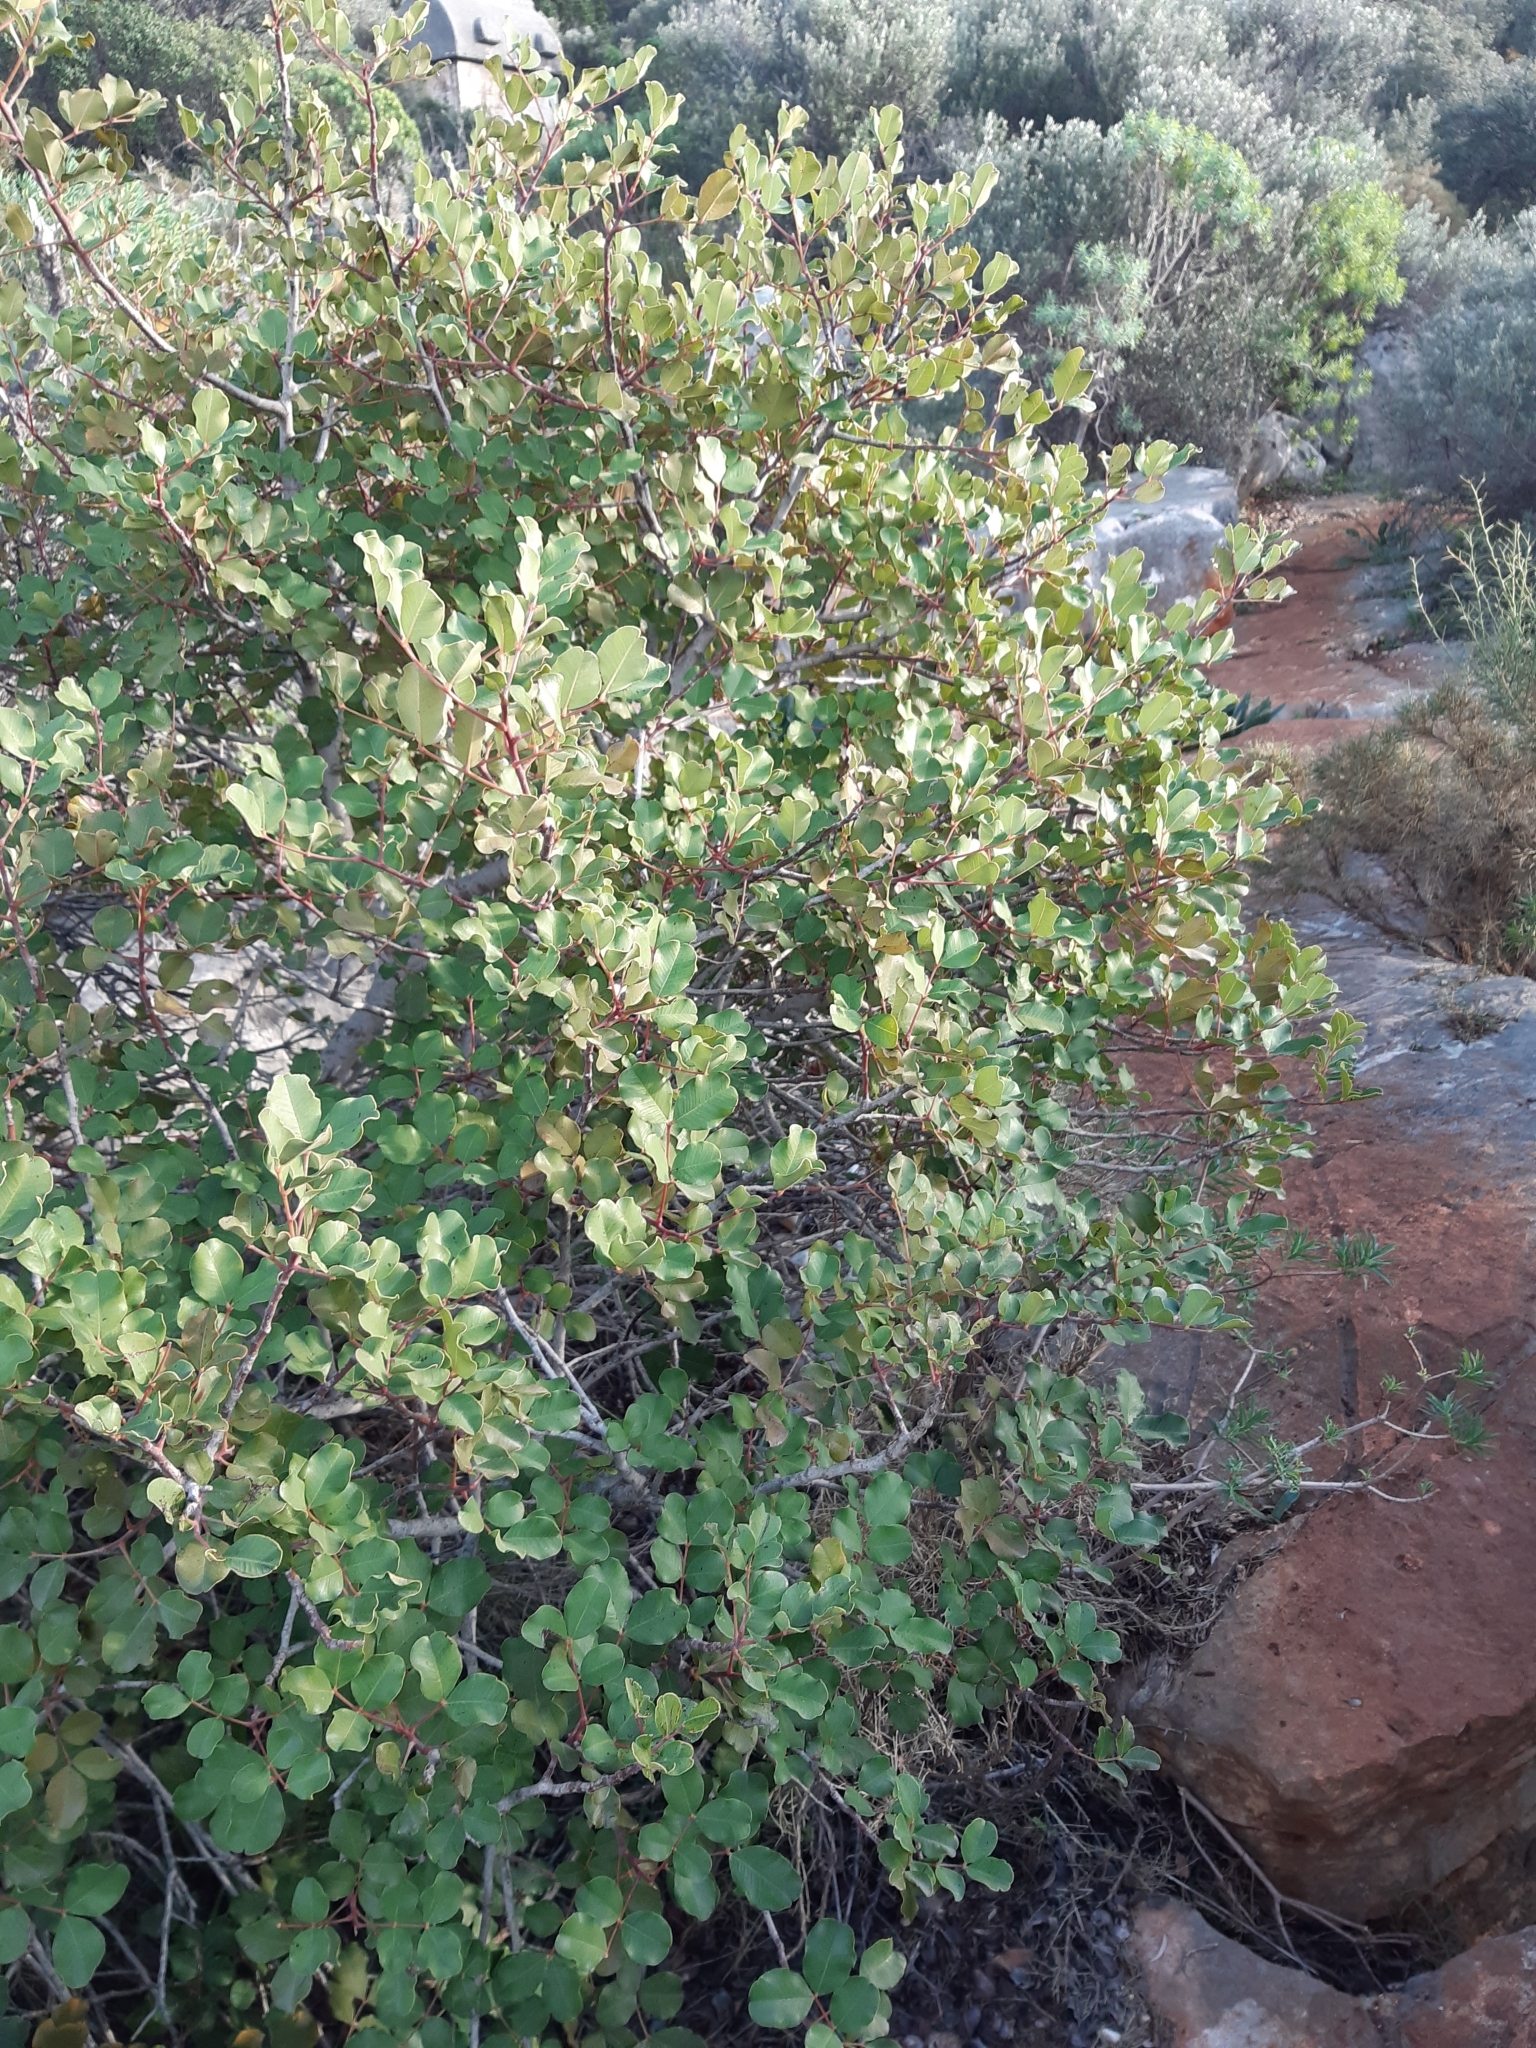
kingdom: Plantae
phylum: Tracheophyta
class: Magnoliopsida
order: Fabales
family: Fabaceae
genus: Ceratonia
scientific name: Ceratonia siliqua
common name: Carob
